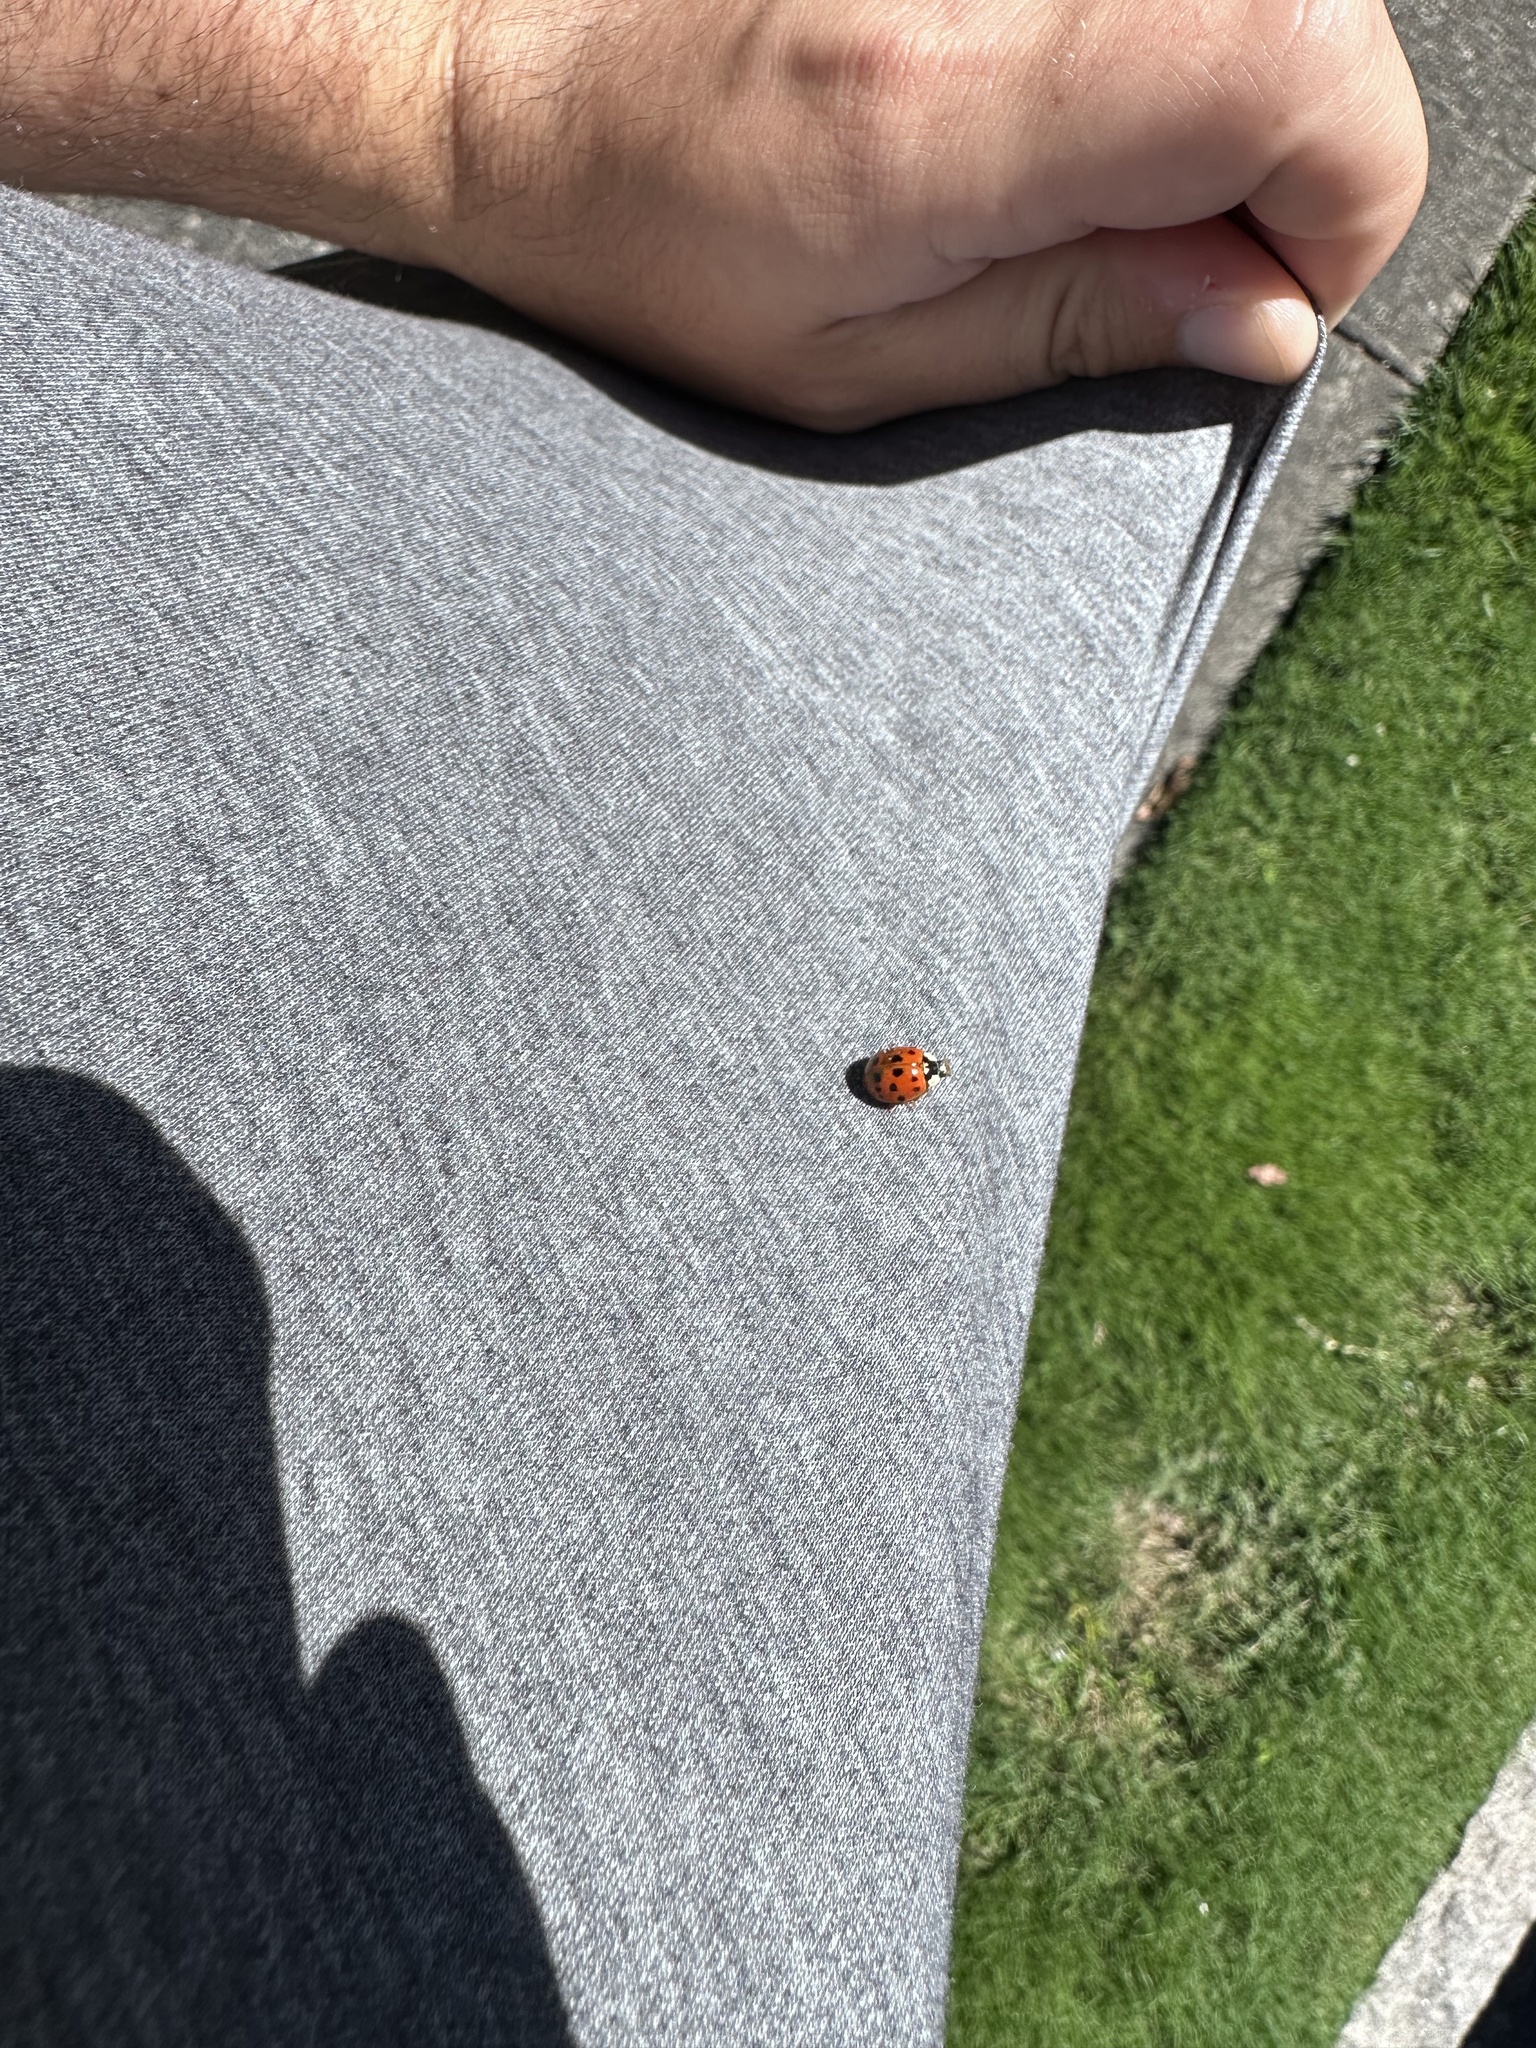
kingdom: Animalia
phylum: Arthropoda
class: Insecta
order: Coleoptera
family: Coccinellidae
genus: Harmonia
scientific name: Harmonia axyridis
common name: Harlequin ladybird
